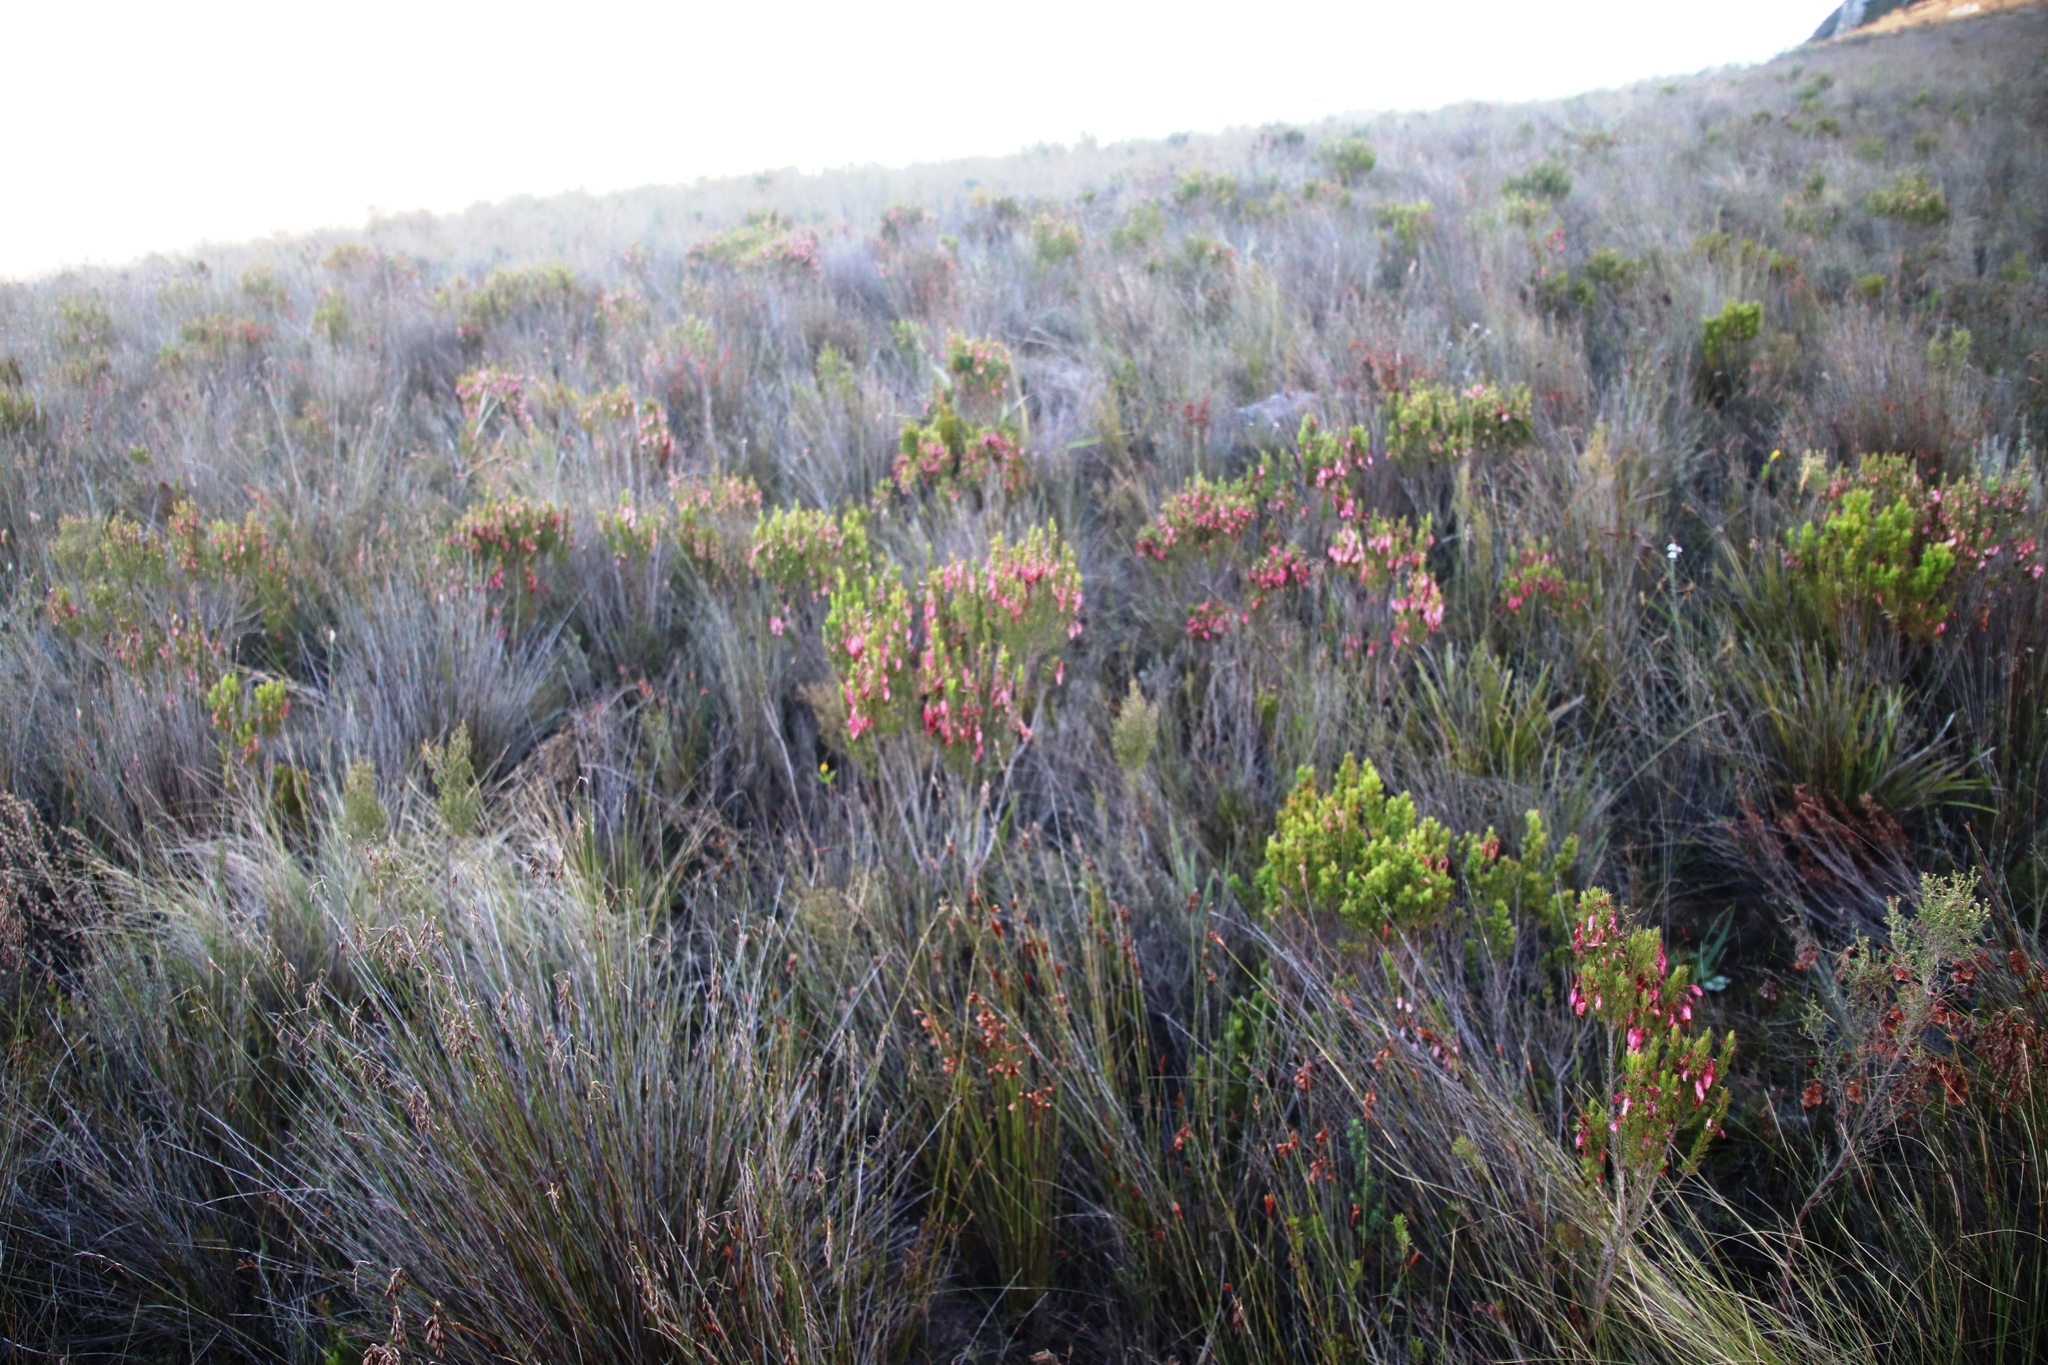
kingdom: Plantae
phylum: Tracheophyta
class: Magnoliopsida
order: Ericales
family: Ericaceae
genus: Erica
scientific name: Erica plukenetii
